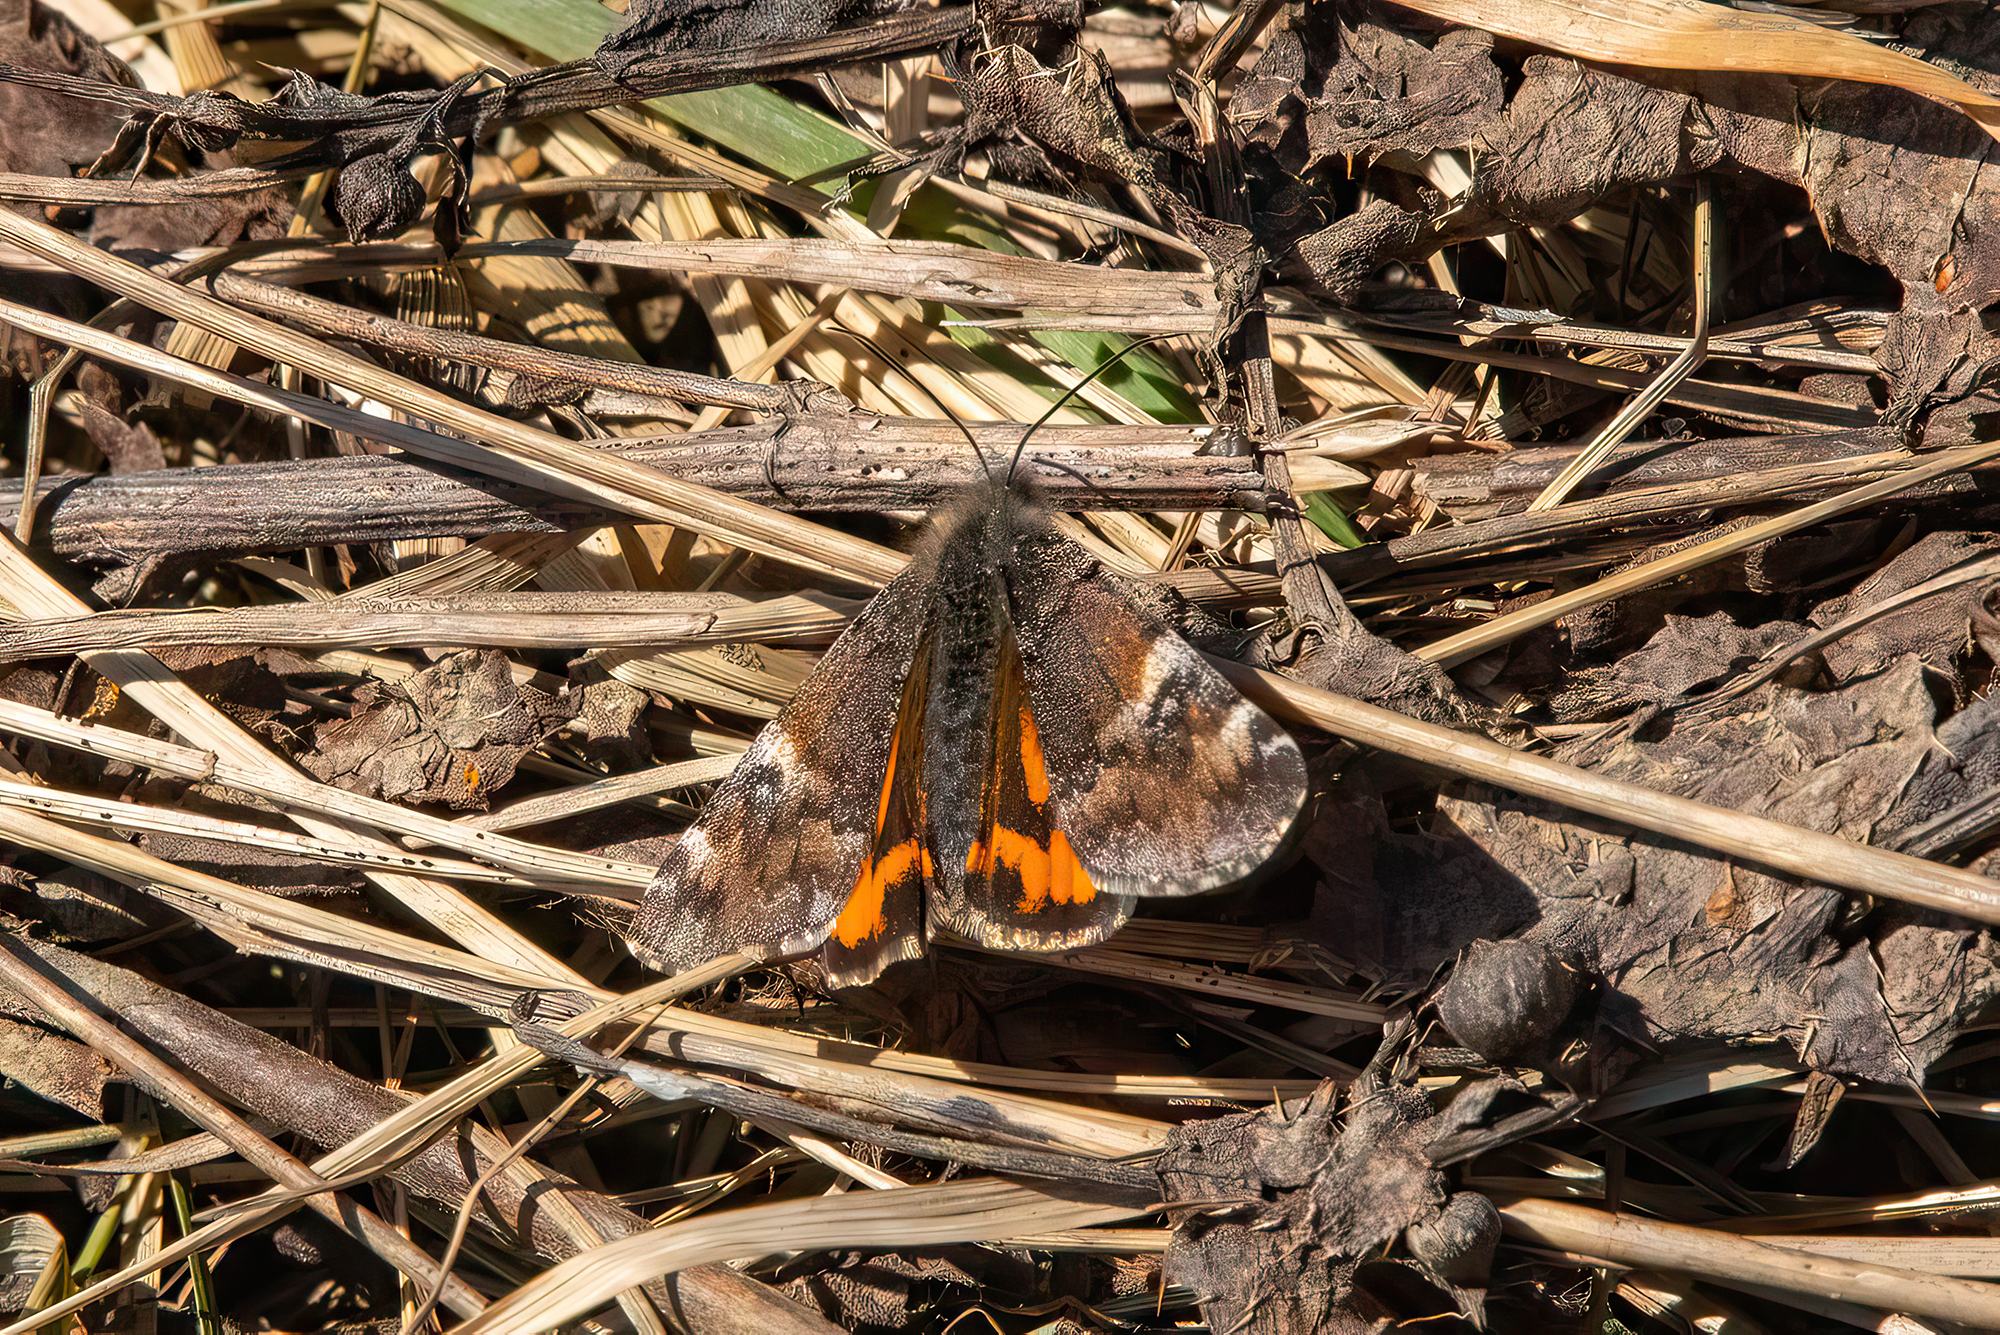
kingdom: Animalia
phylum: Arthropoda
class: Insecta
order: Lepidoptera
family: Geometridae
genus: Archiearis
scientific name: Archiearis parthenias
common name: Orange underwing
